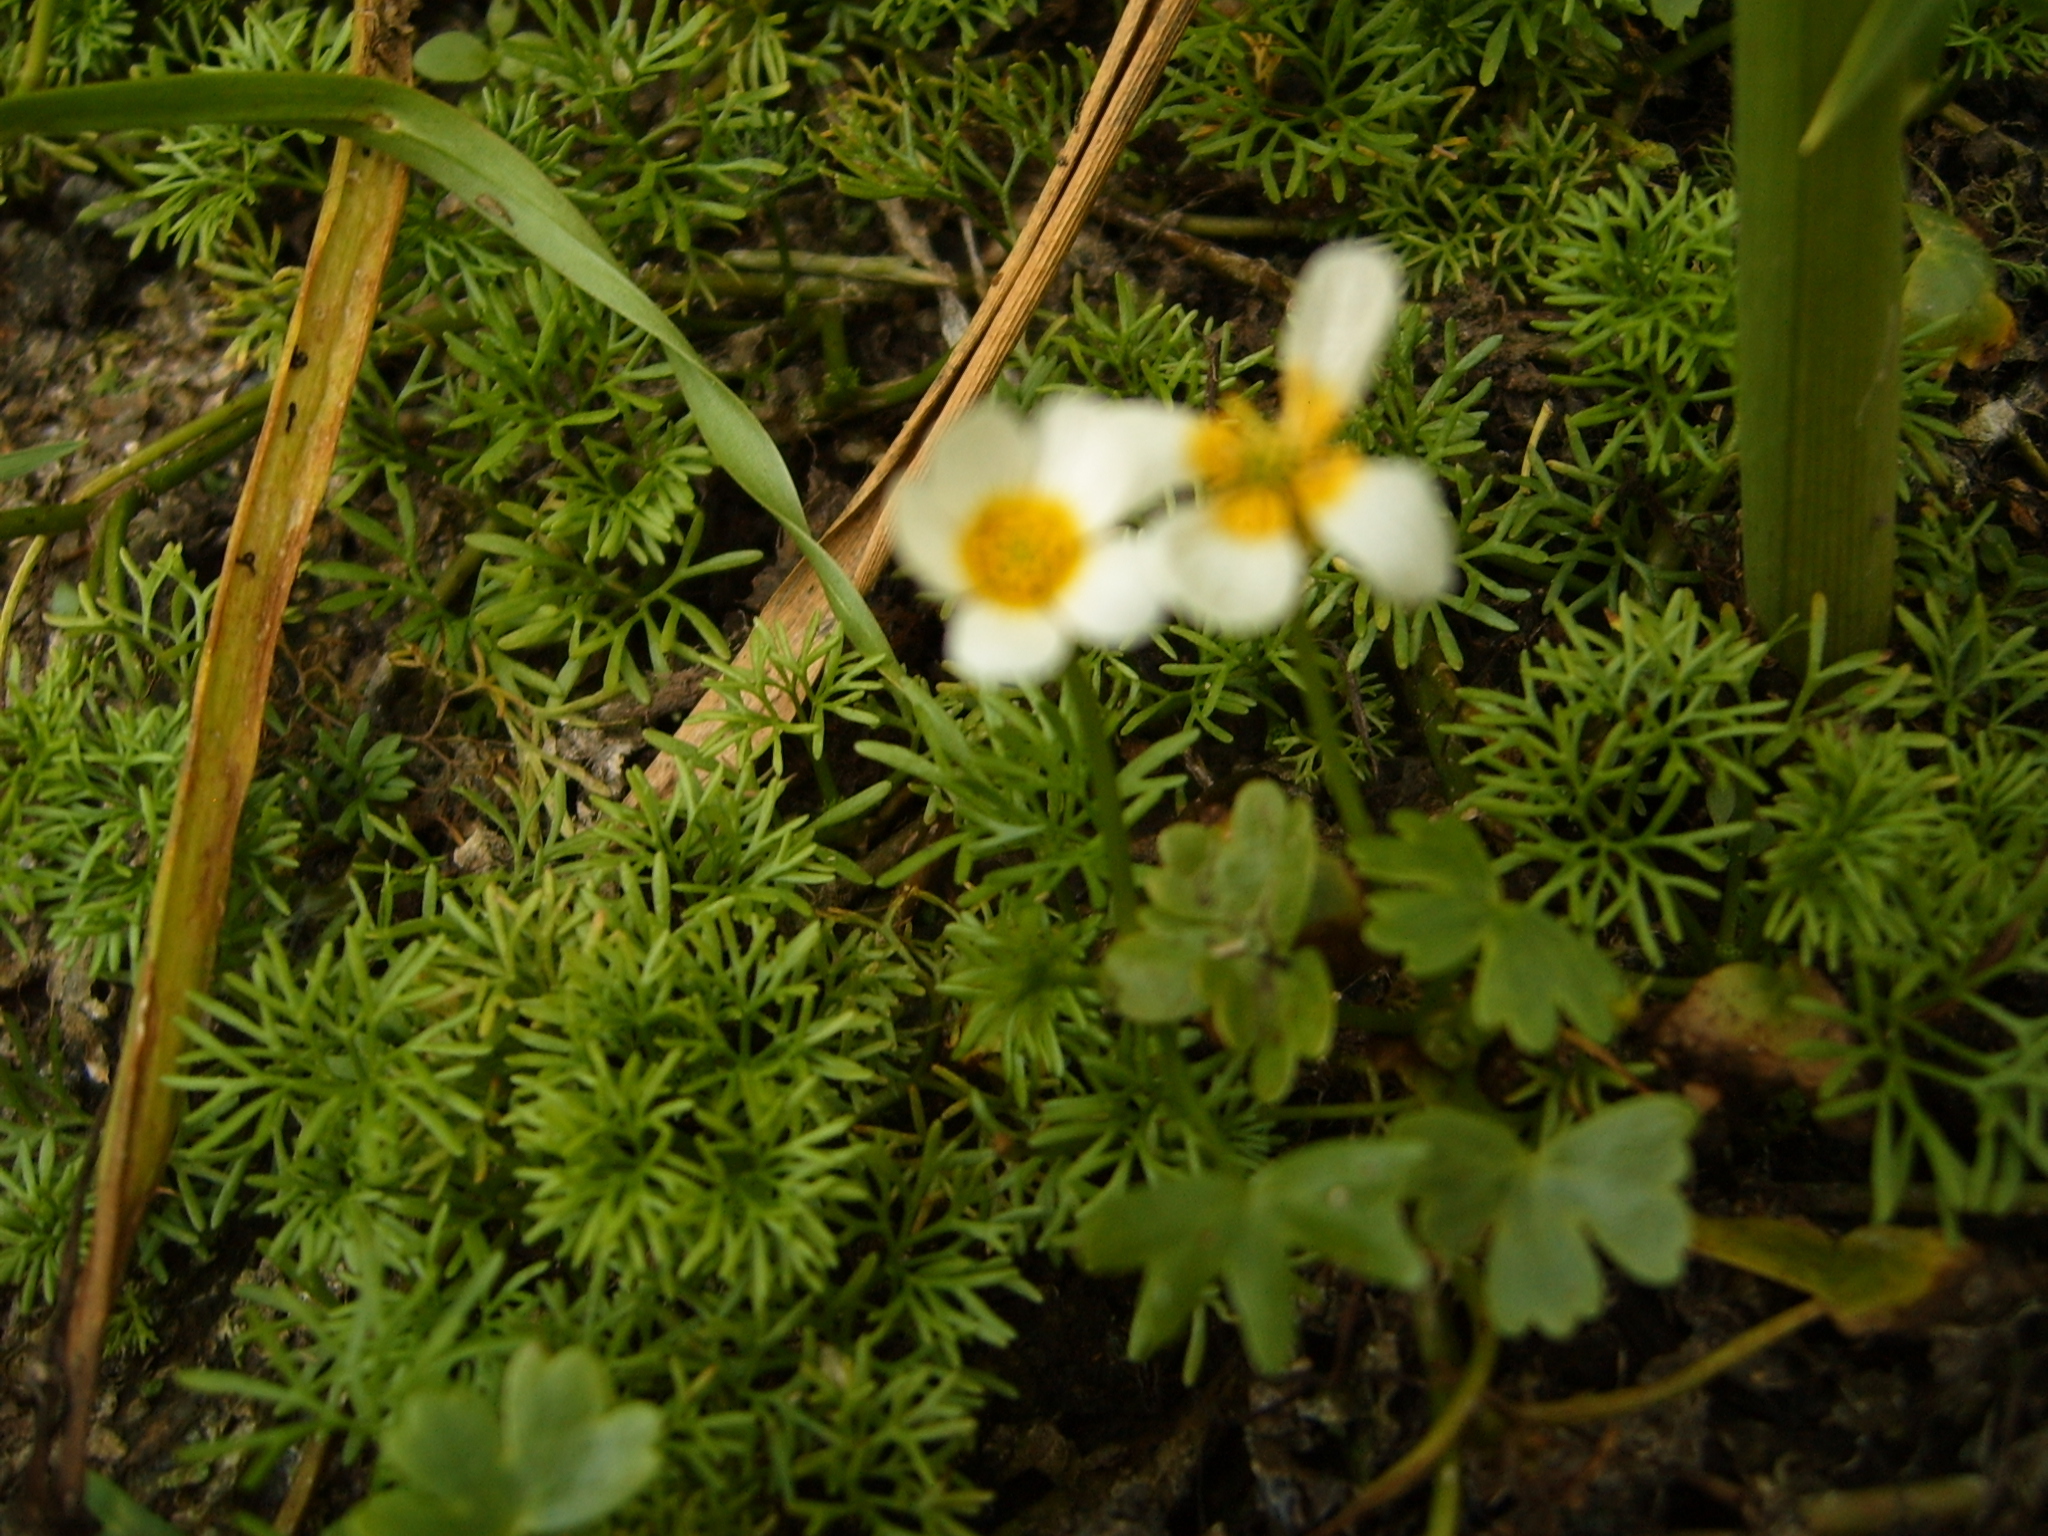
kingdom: Plantae
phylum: Tracheophyta
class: Magnoliopsida
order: Ranunculales
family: Ranunculaceae
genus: Ranunculus
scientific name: Ranunculus peltatus
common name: Pond water-crowfoot
